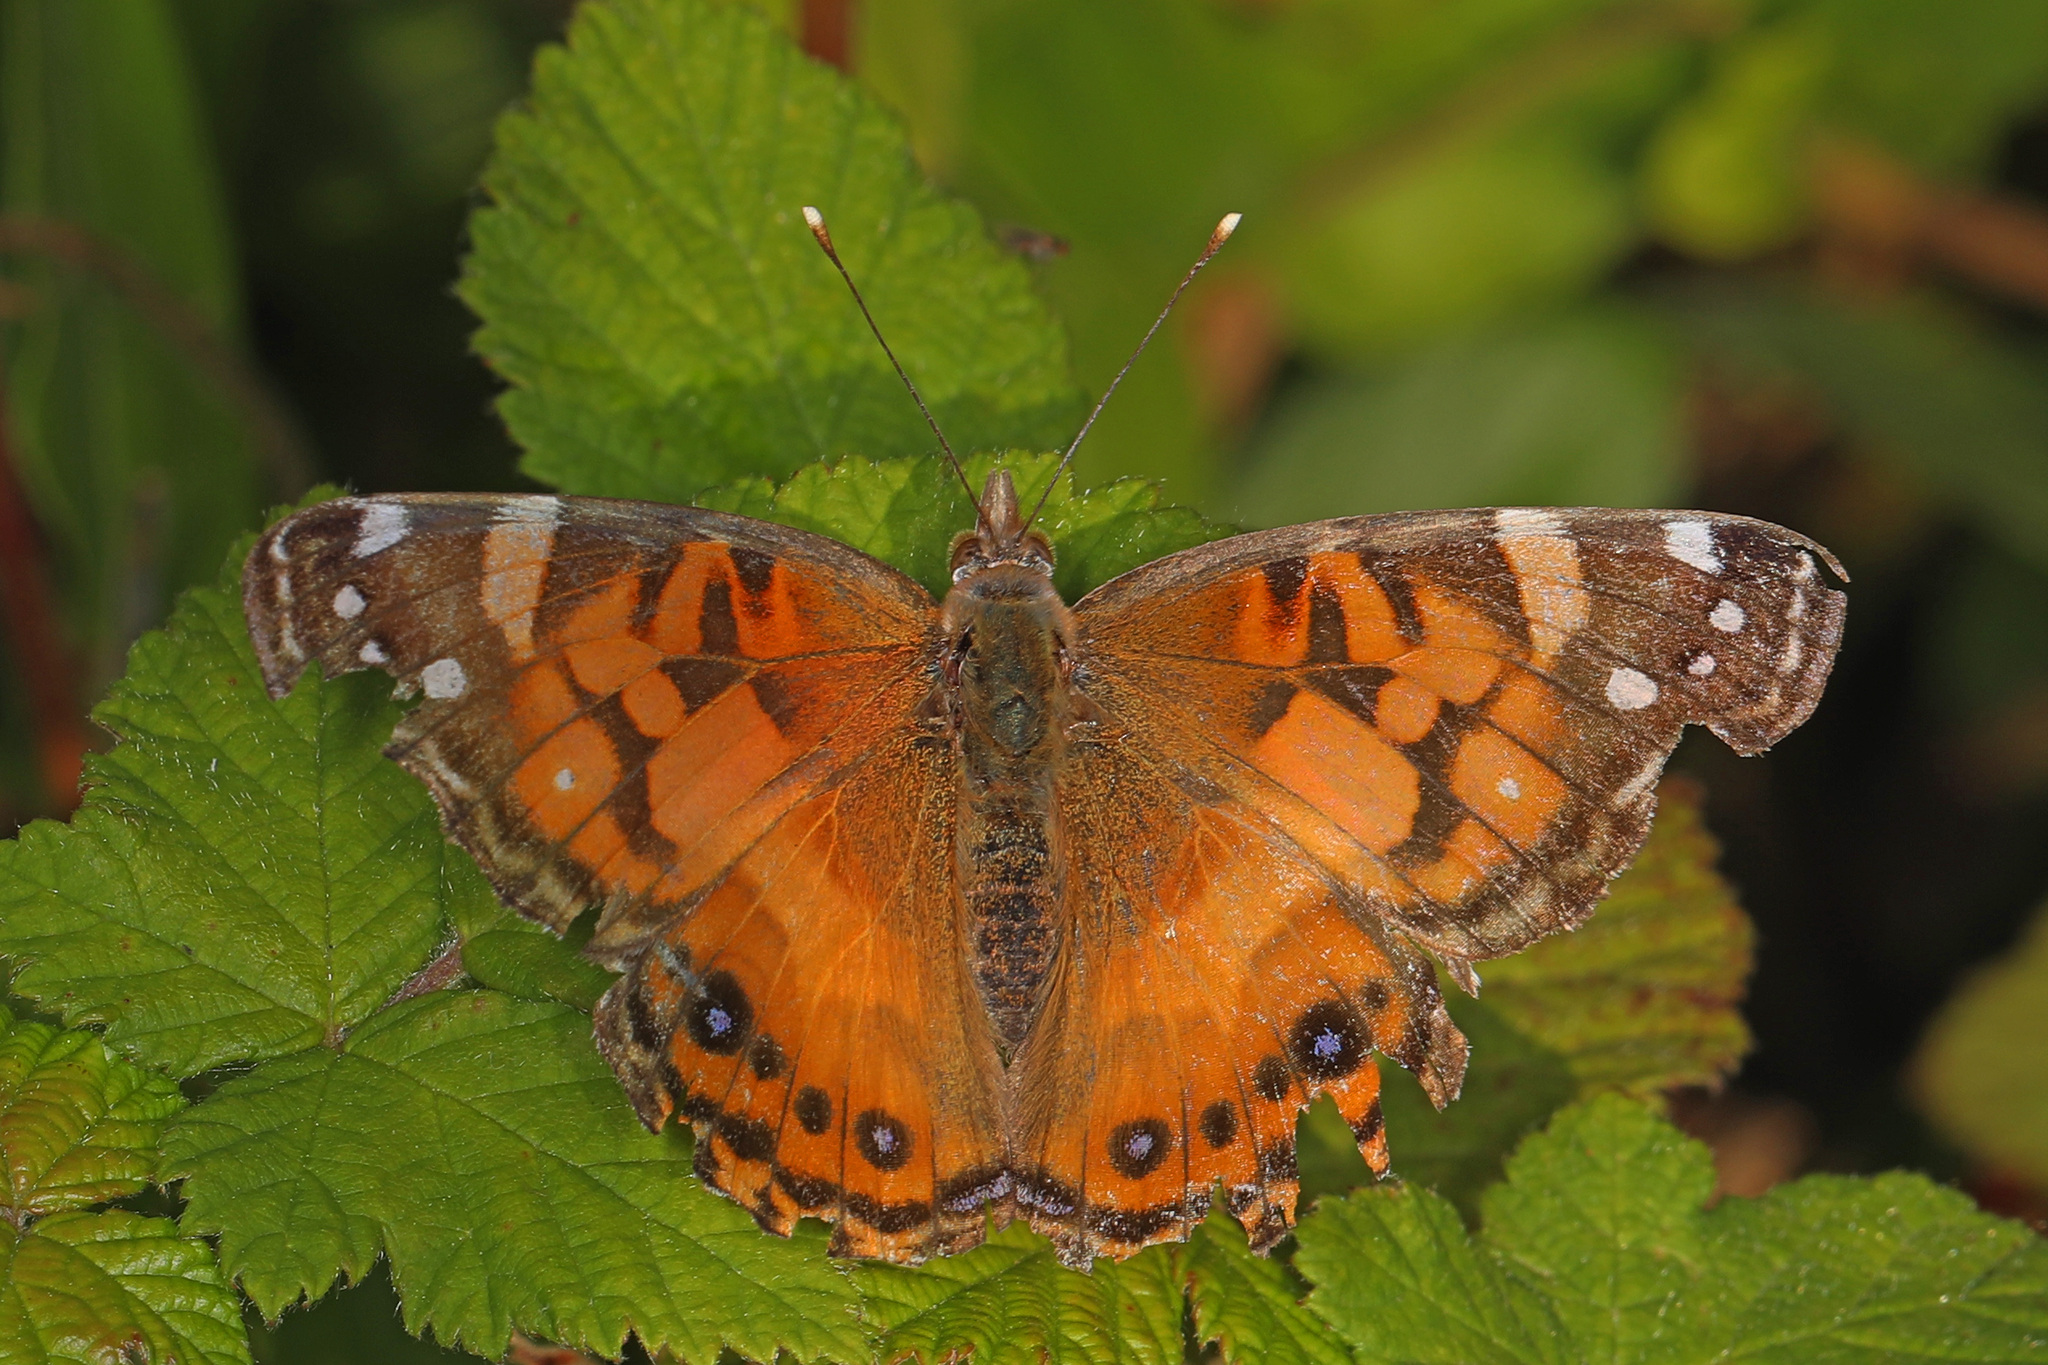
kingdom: Animalia
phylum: Arthropoda
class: Insecta
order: Lepidoptera
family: Nymphalidae
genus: Vanessa
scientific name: Vanessa virginiensis
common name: American lady
